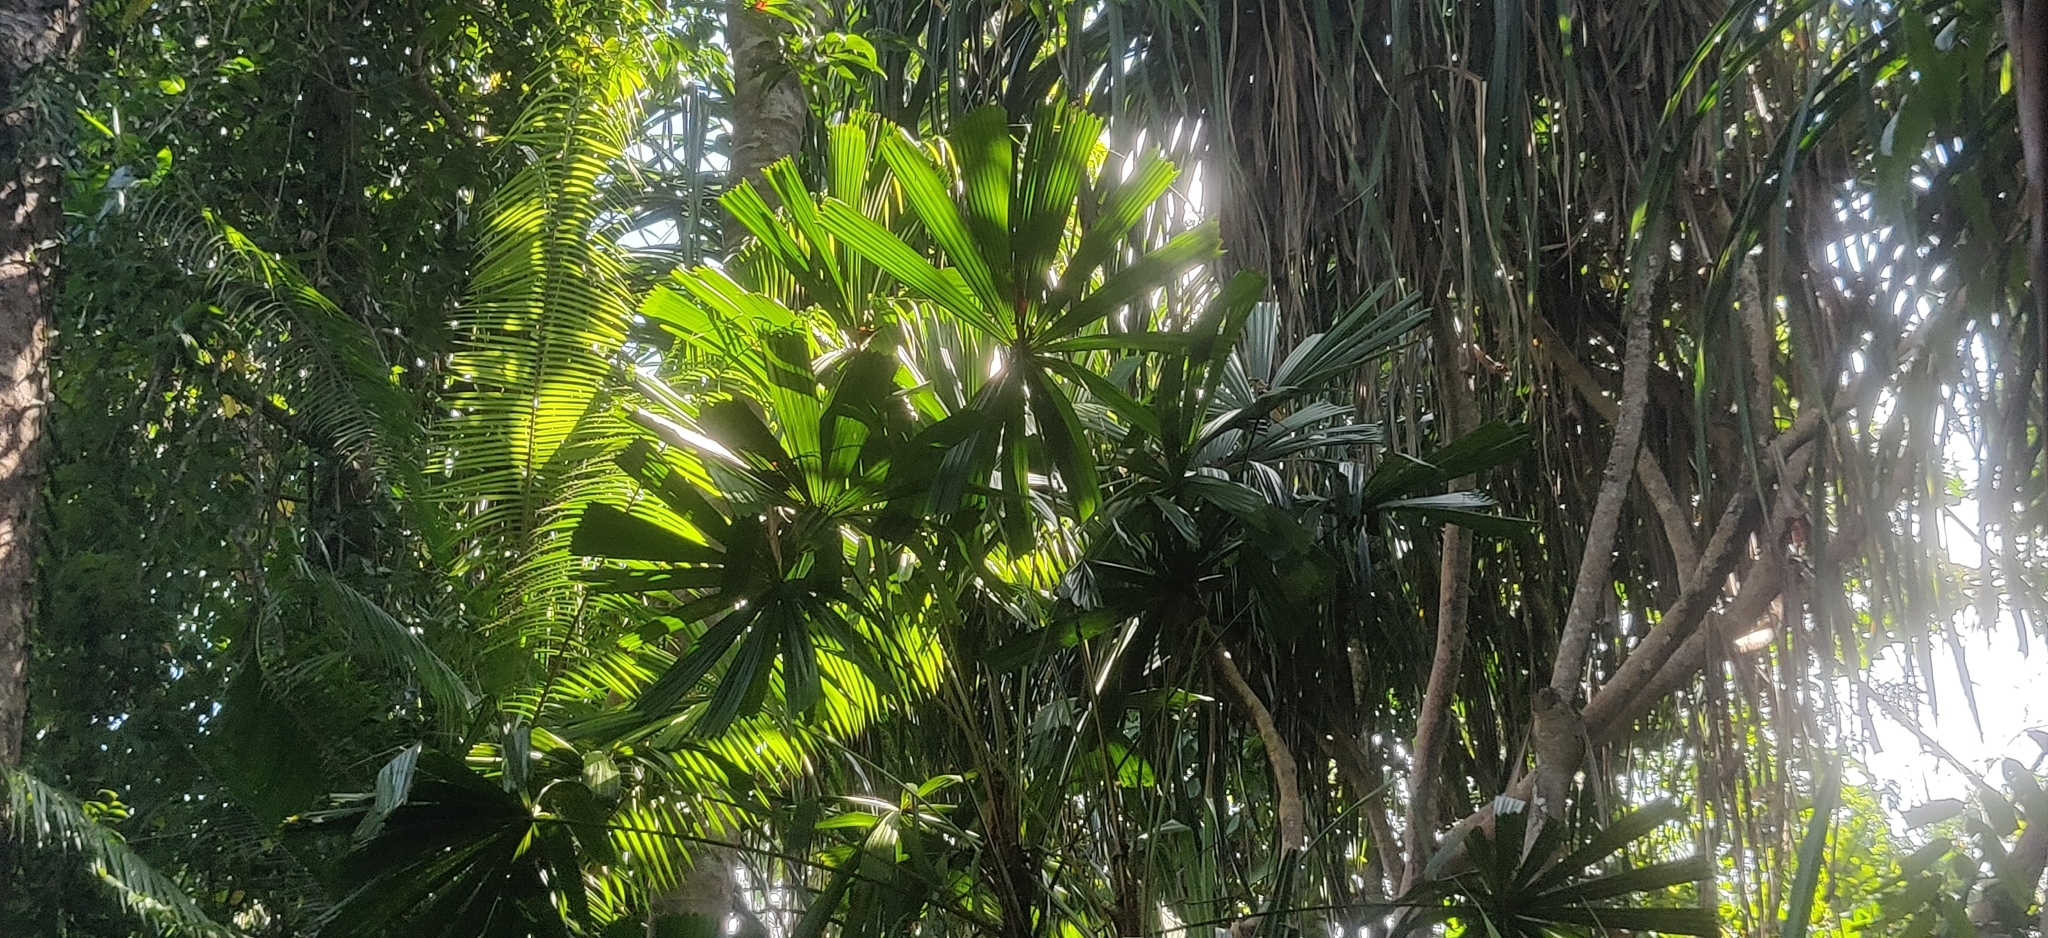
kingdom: Plantae
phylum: Tracheophyta
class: Liliopsida
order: Arecales
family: Arecaceae
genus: Licuala
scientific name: Licuala peltata
